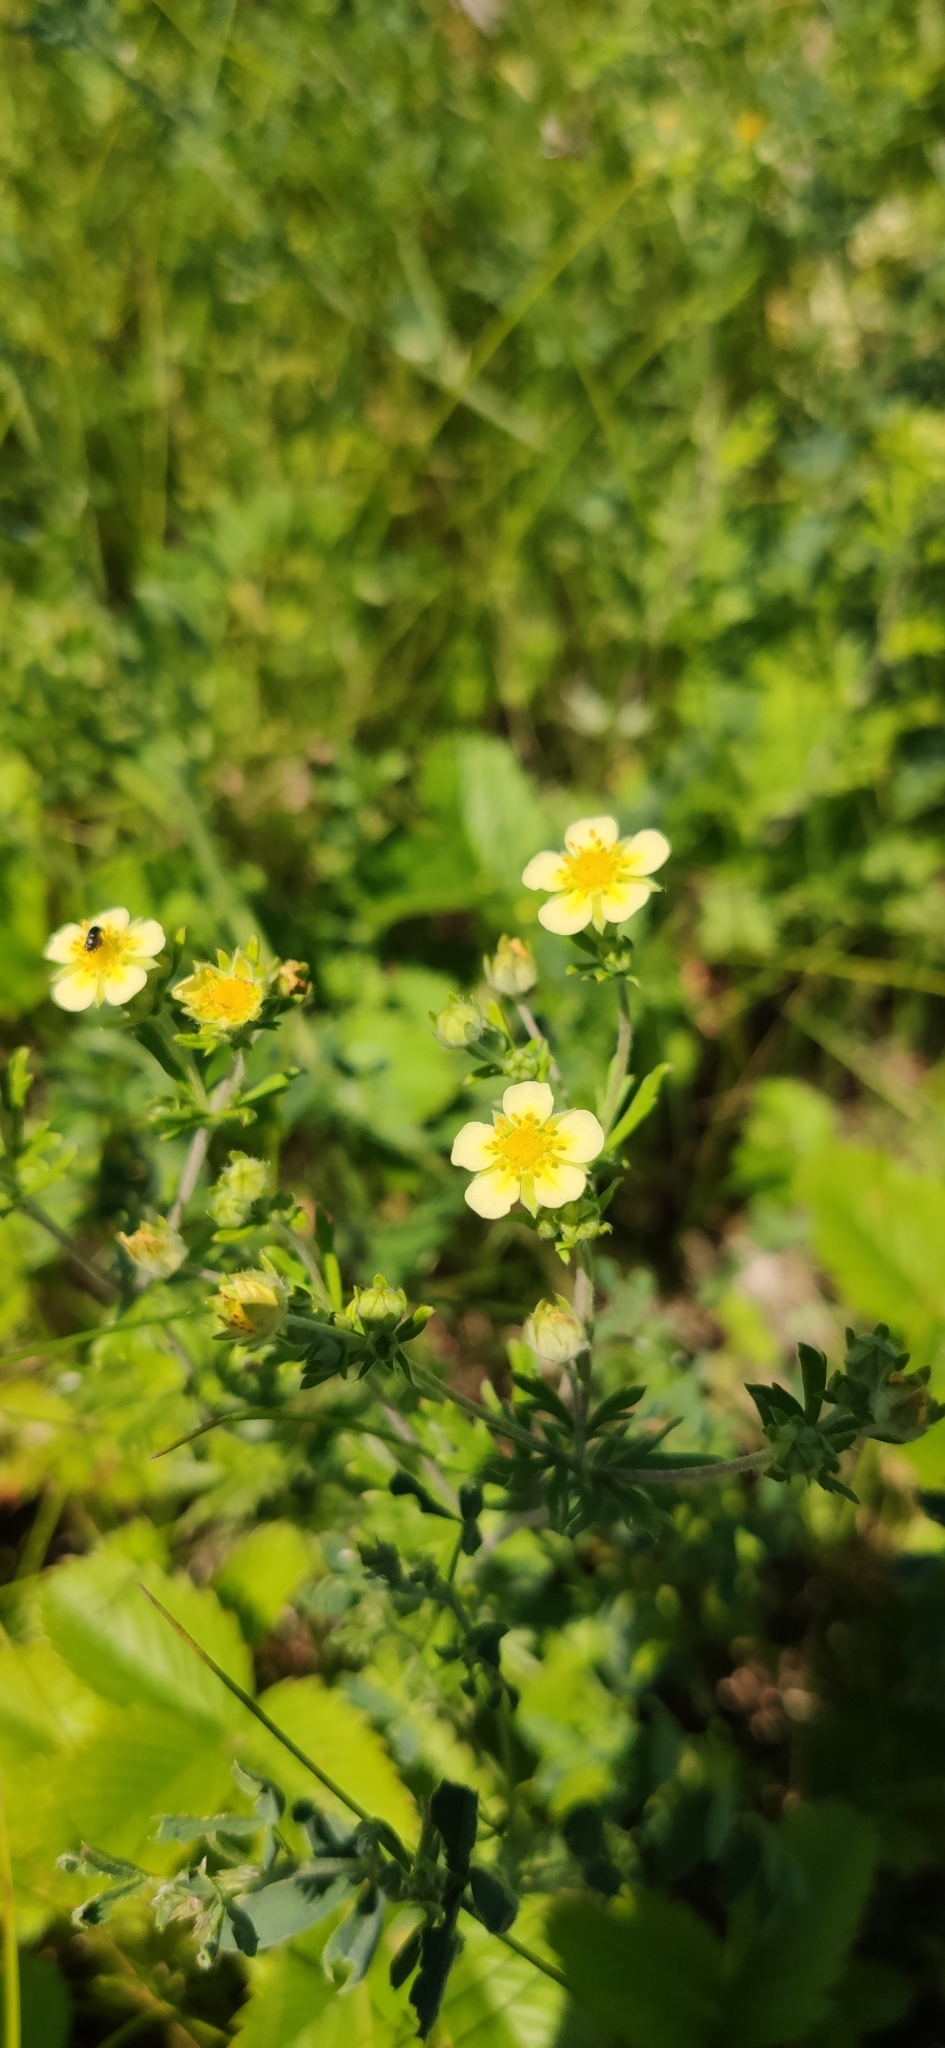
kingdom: Plantae
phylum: Tracheophyta
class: Magnoliopsida
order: Rosales
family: Rosaceae
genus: Potentilla
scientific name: Potentilla argentea
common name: Hoary cinquefoil
